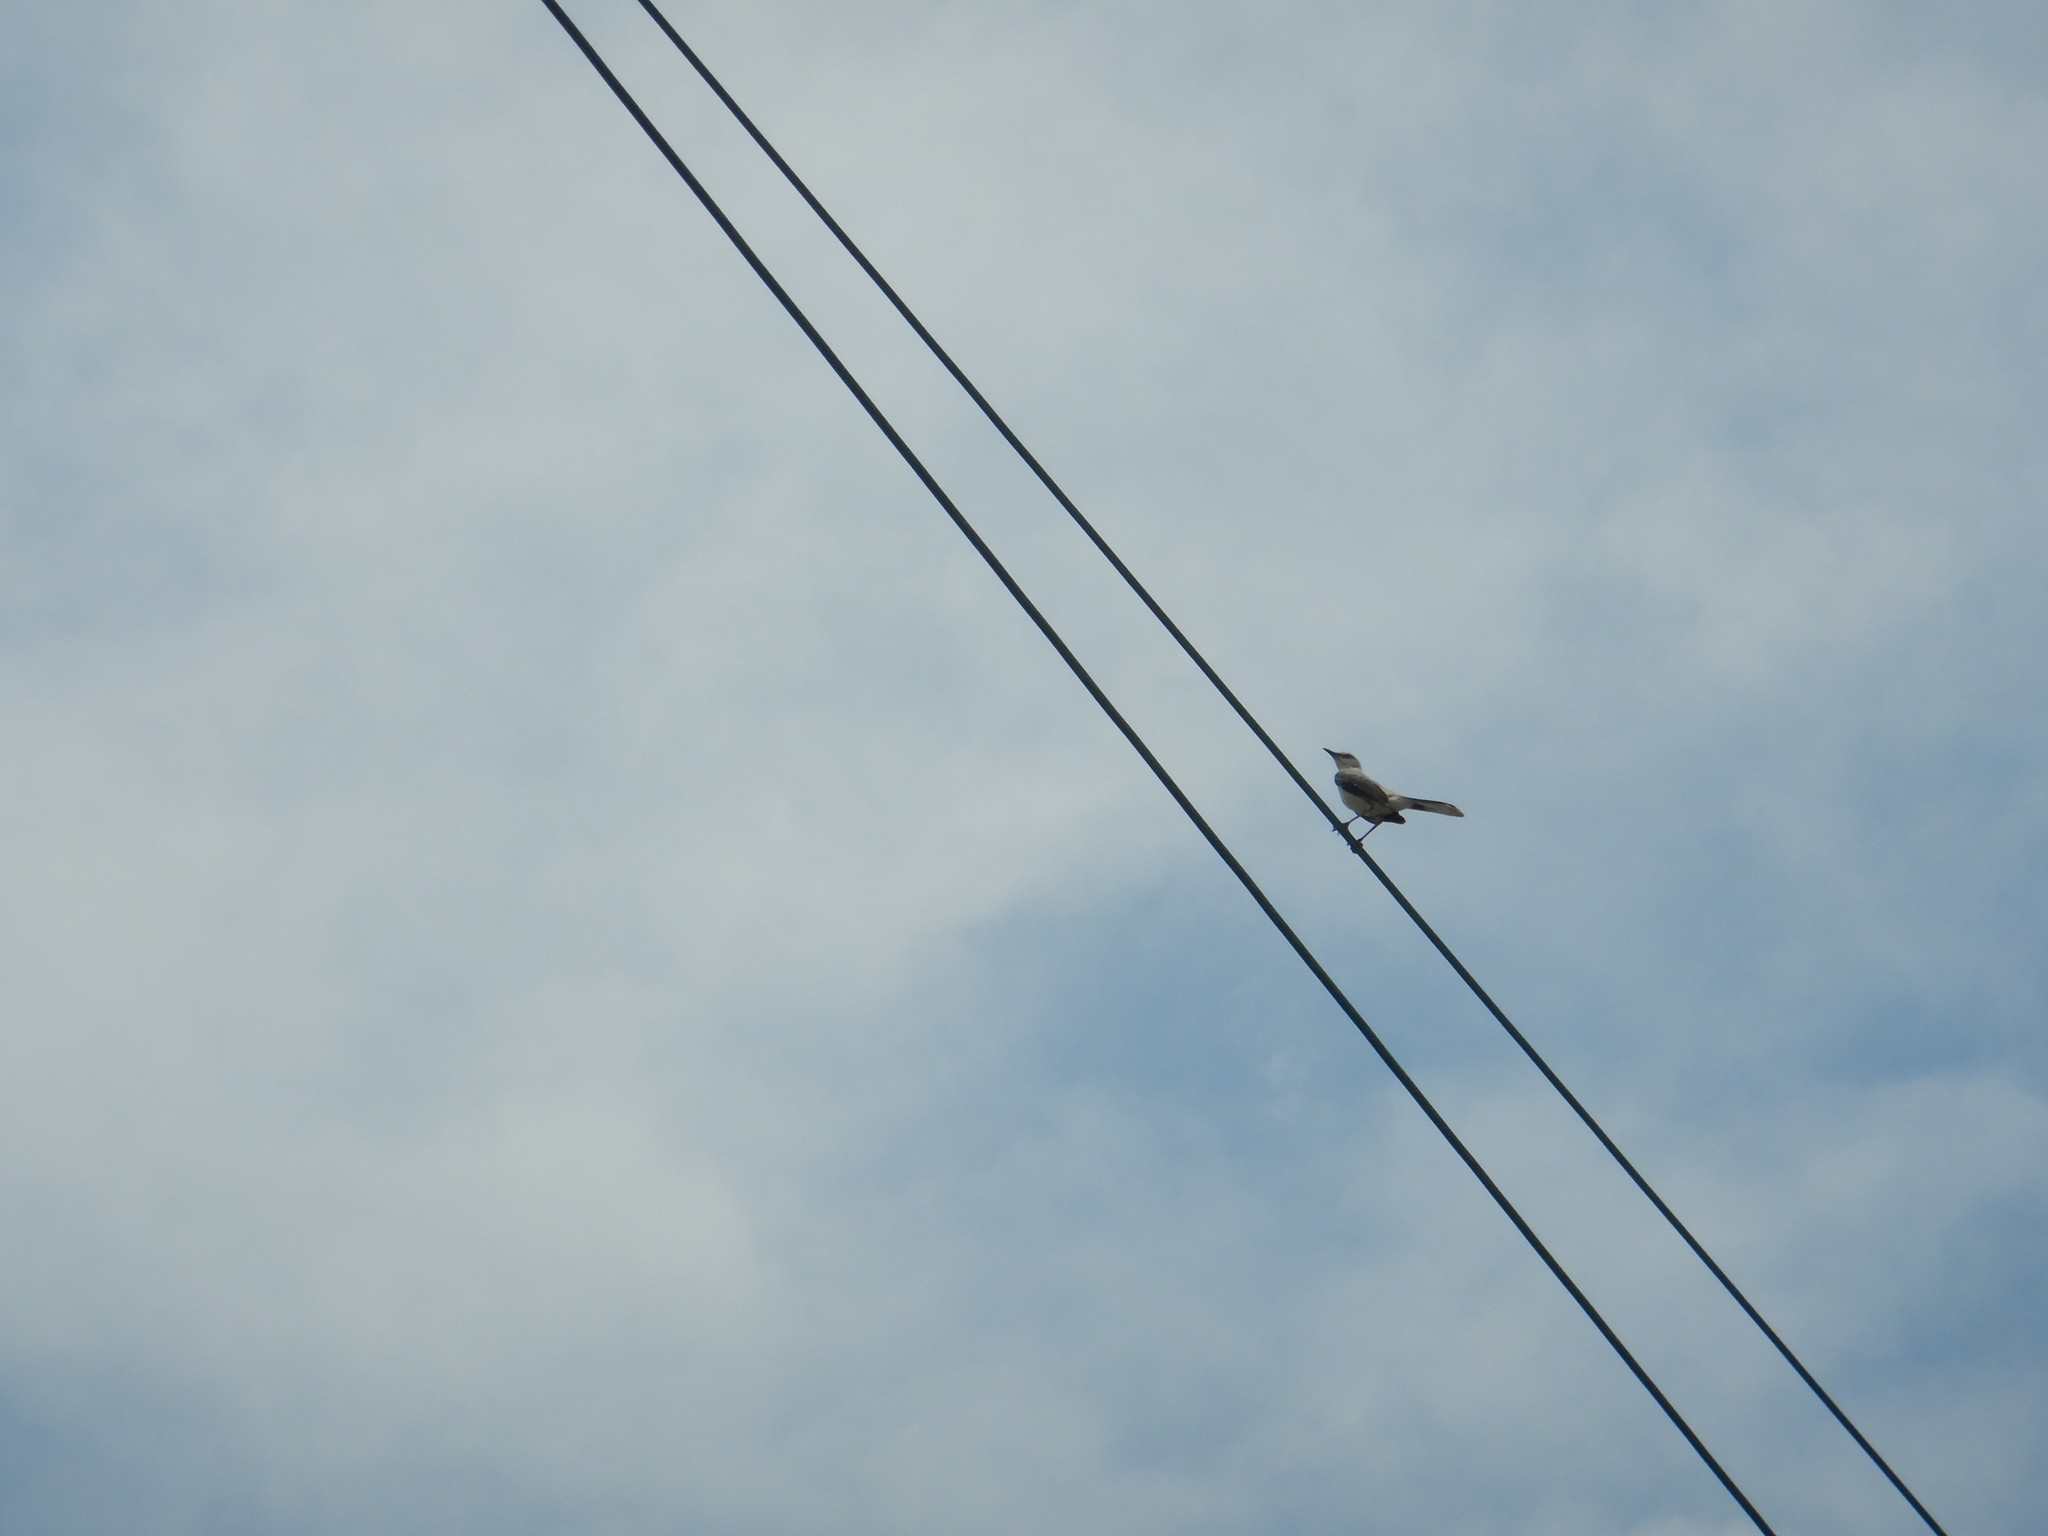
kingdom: Animalia
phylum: Chordata
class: Aves
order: Passeriformes
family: Mimidae
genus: Mimus
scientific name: Mimus gilvus
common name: Tropical mockingbird
